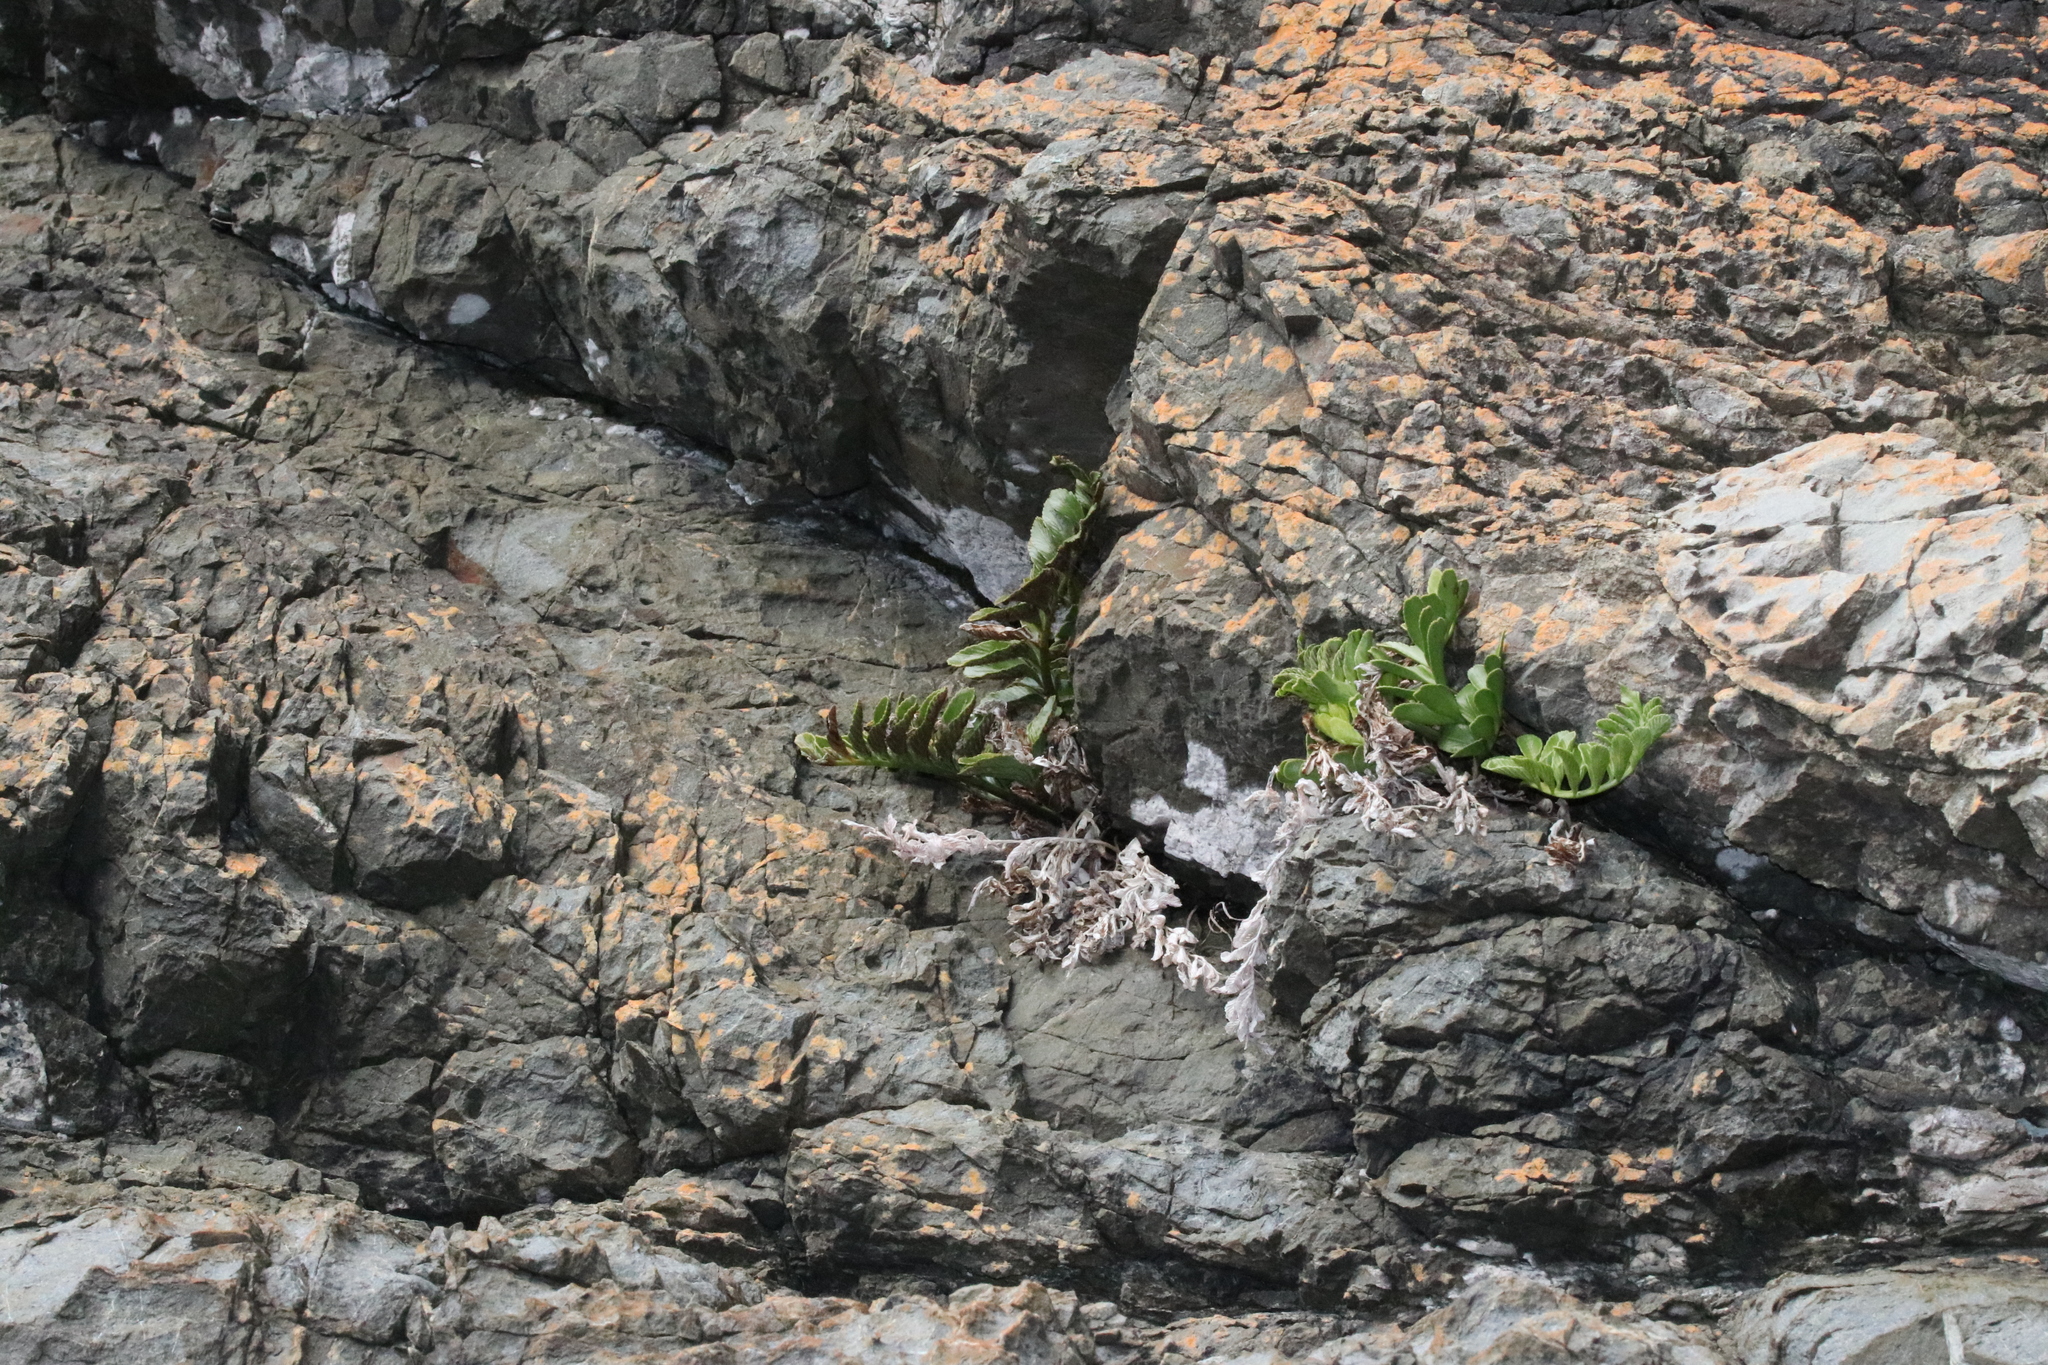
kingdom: Plantae
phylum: Tracheophyta
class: Polypodiopsida
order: Polypodiales
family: Aspleniaceae
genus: Asplenium
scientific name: Asplenium obtusatum
